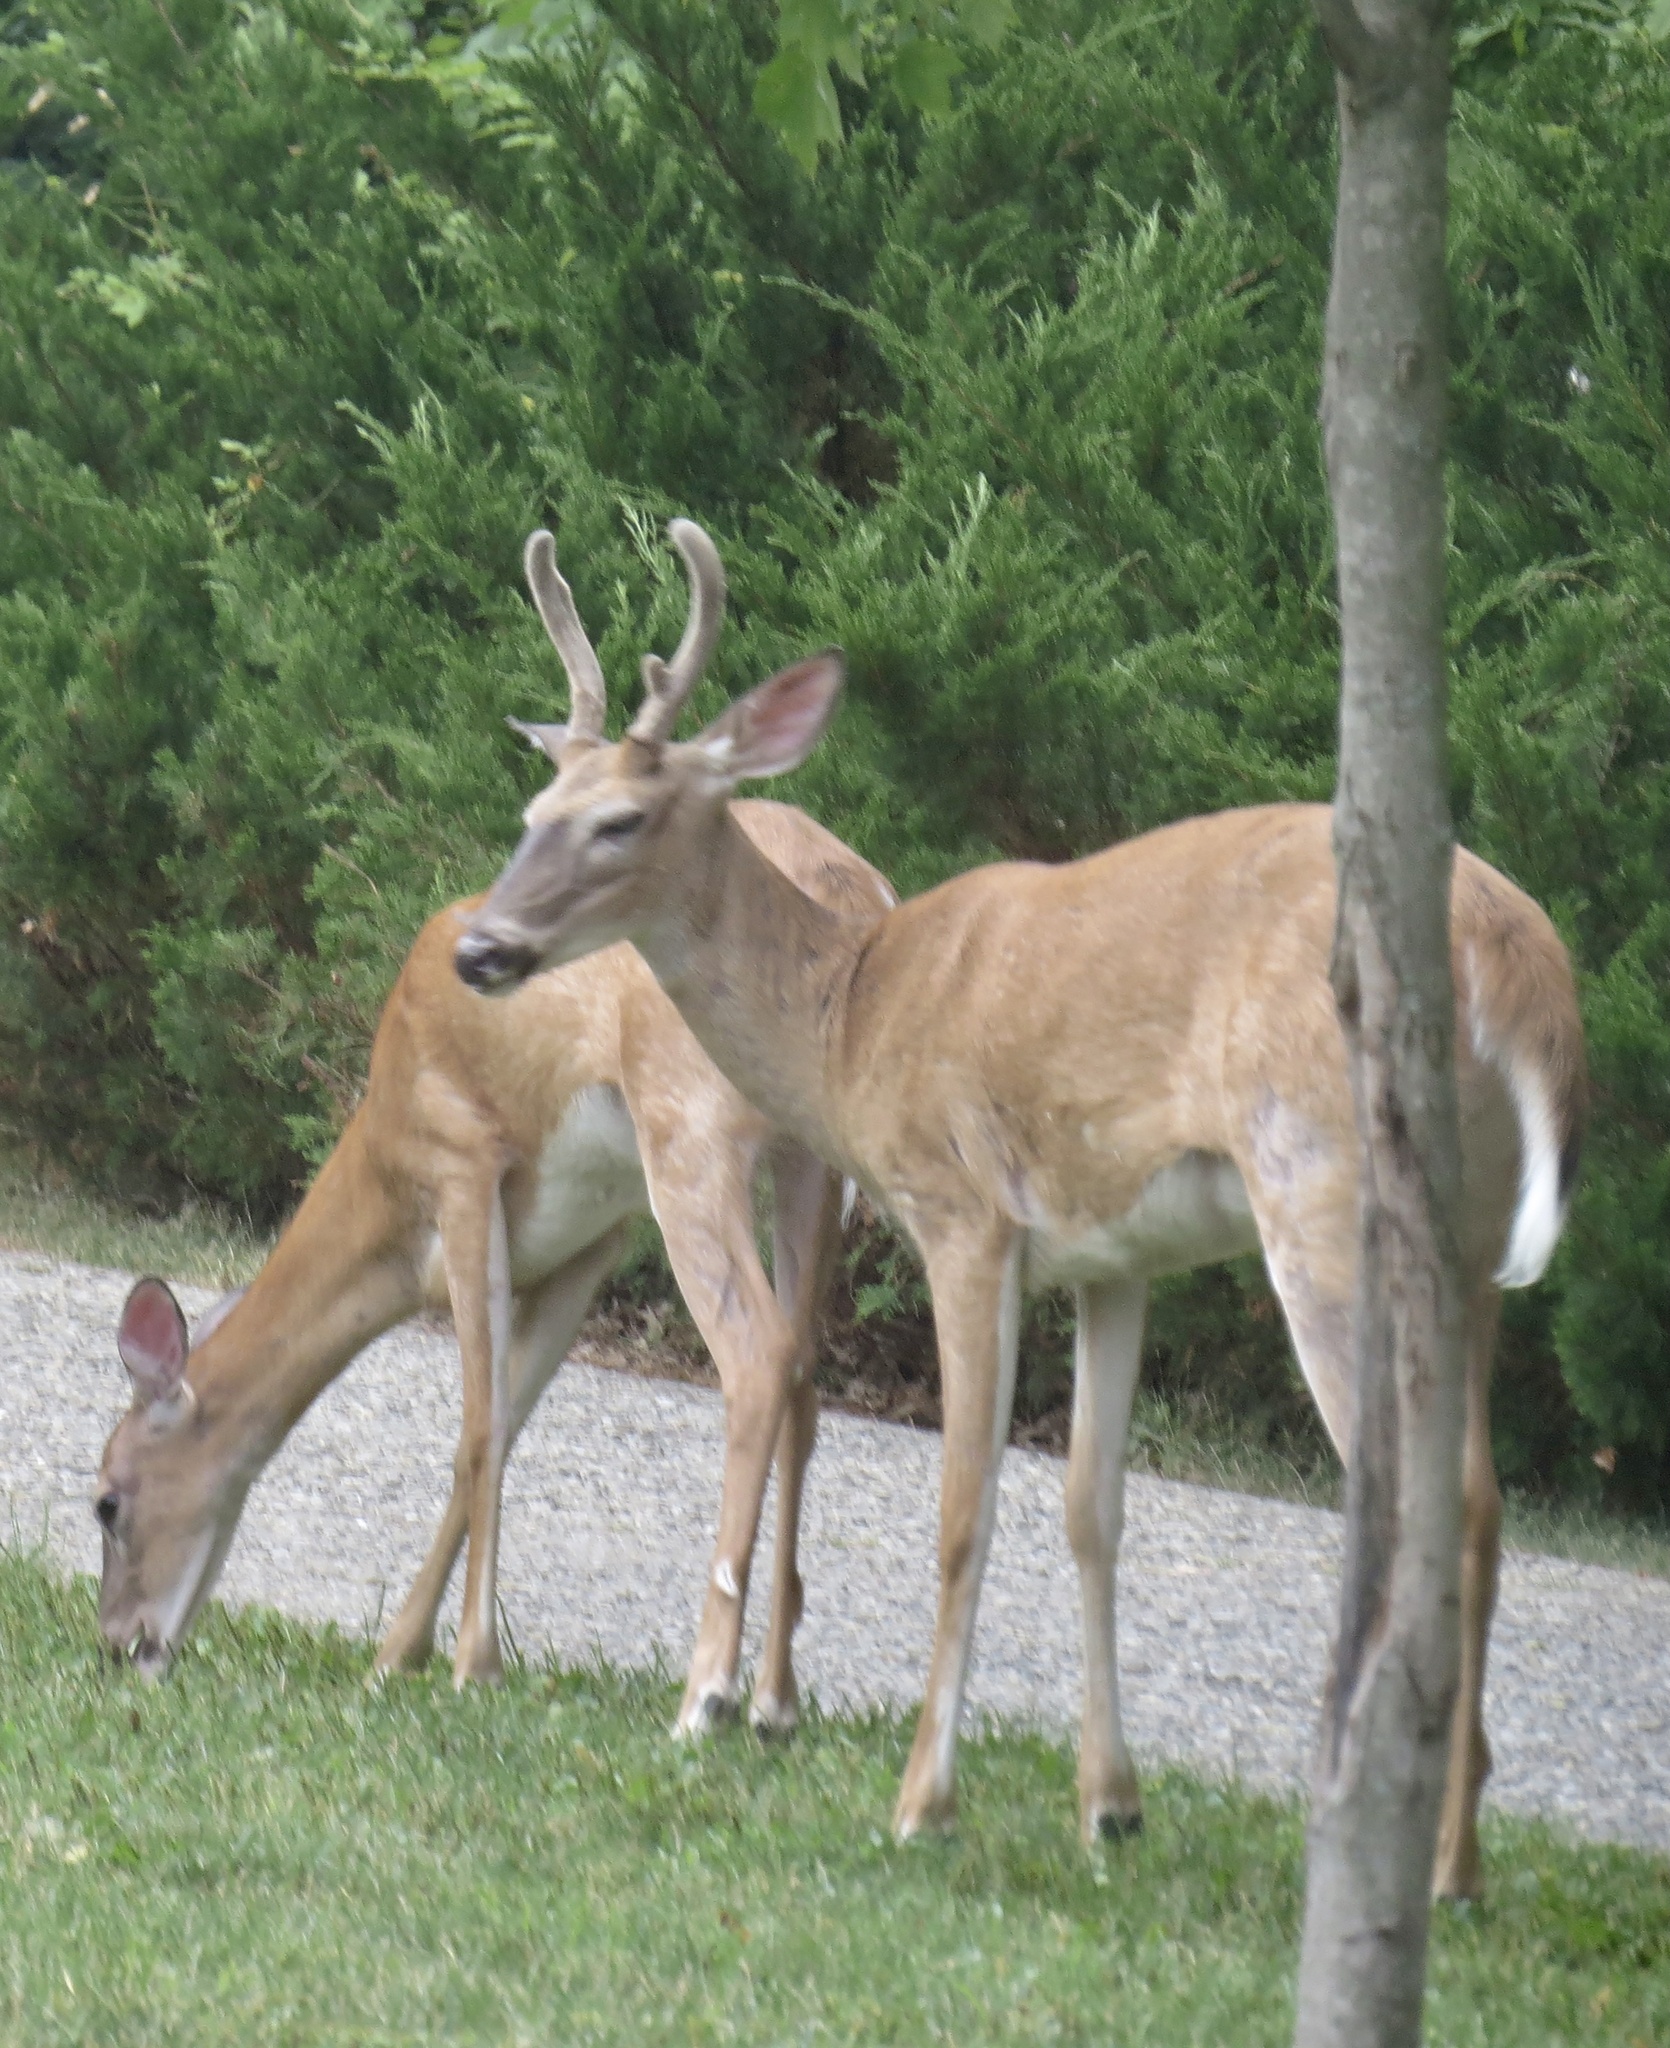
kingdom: Animalia
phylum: Chordata
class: Mammalia
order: Artiodactyla
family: Cervidae
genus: Odocoileus
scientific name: Odocoileus virginianus
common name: White-tailed deer
